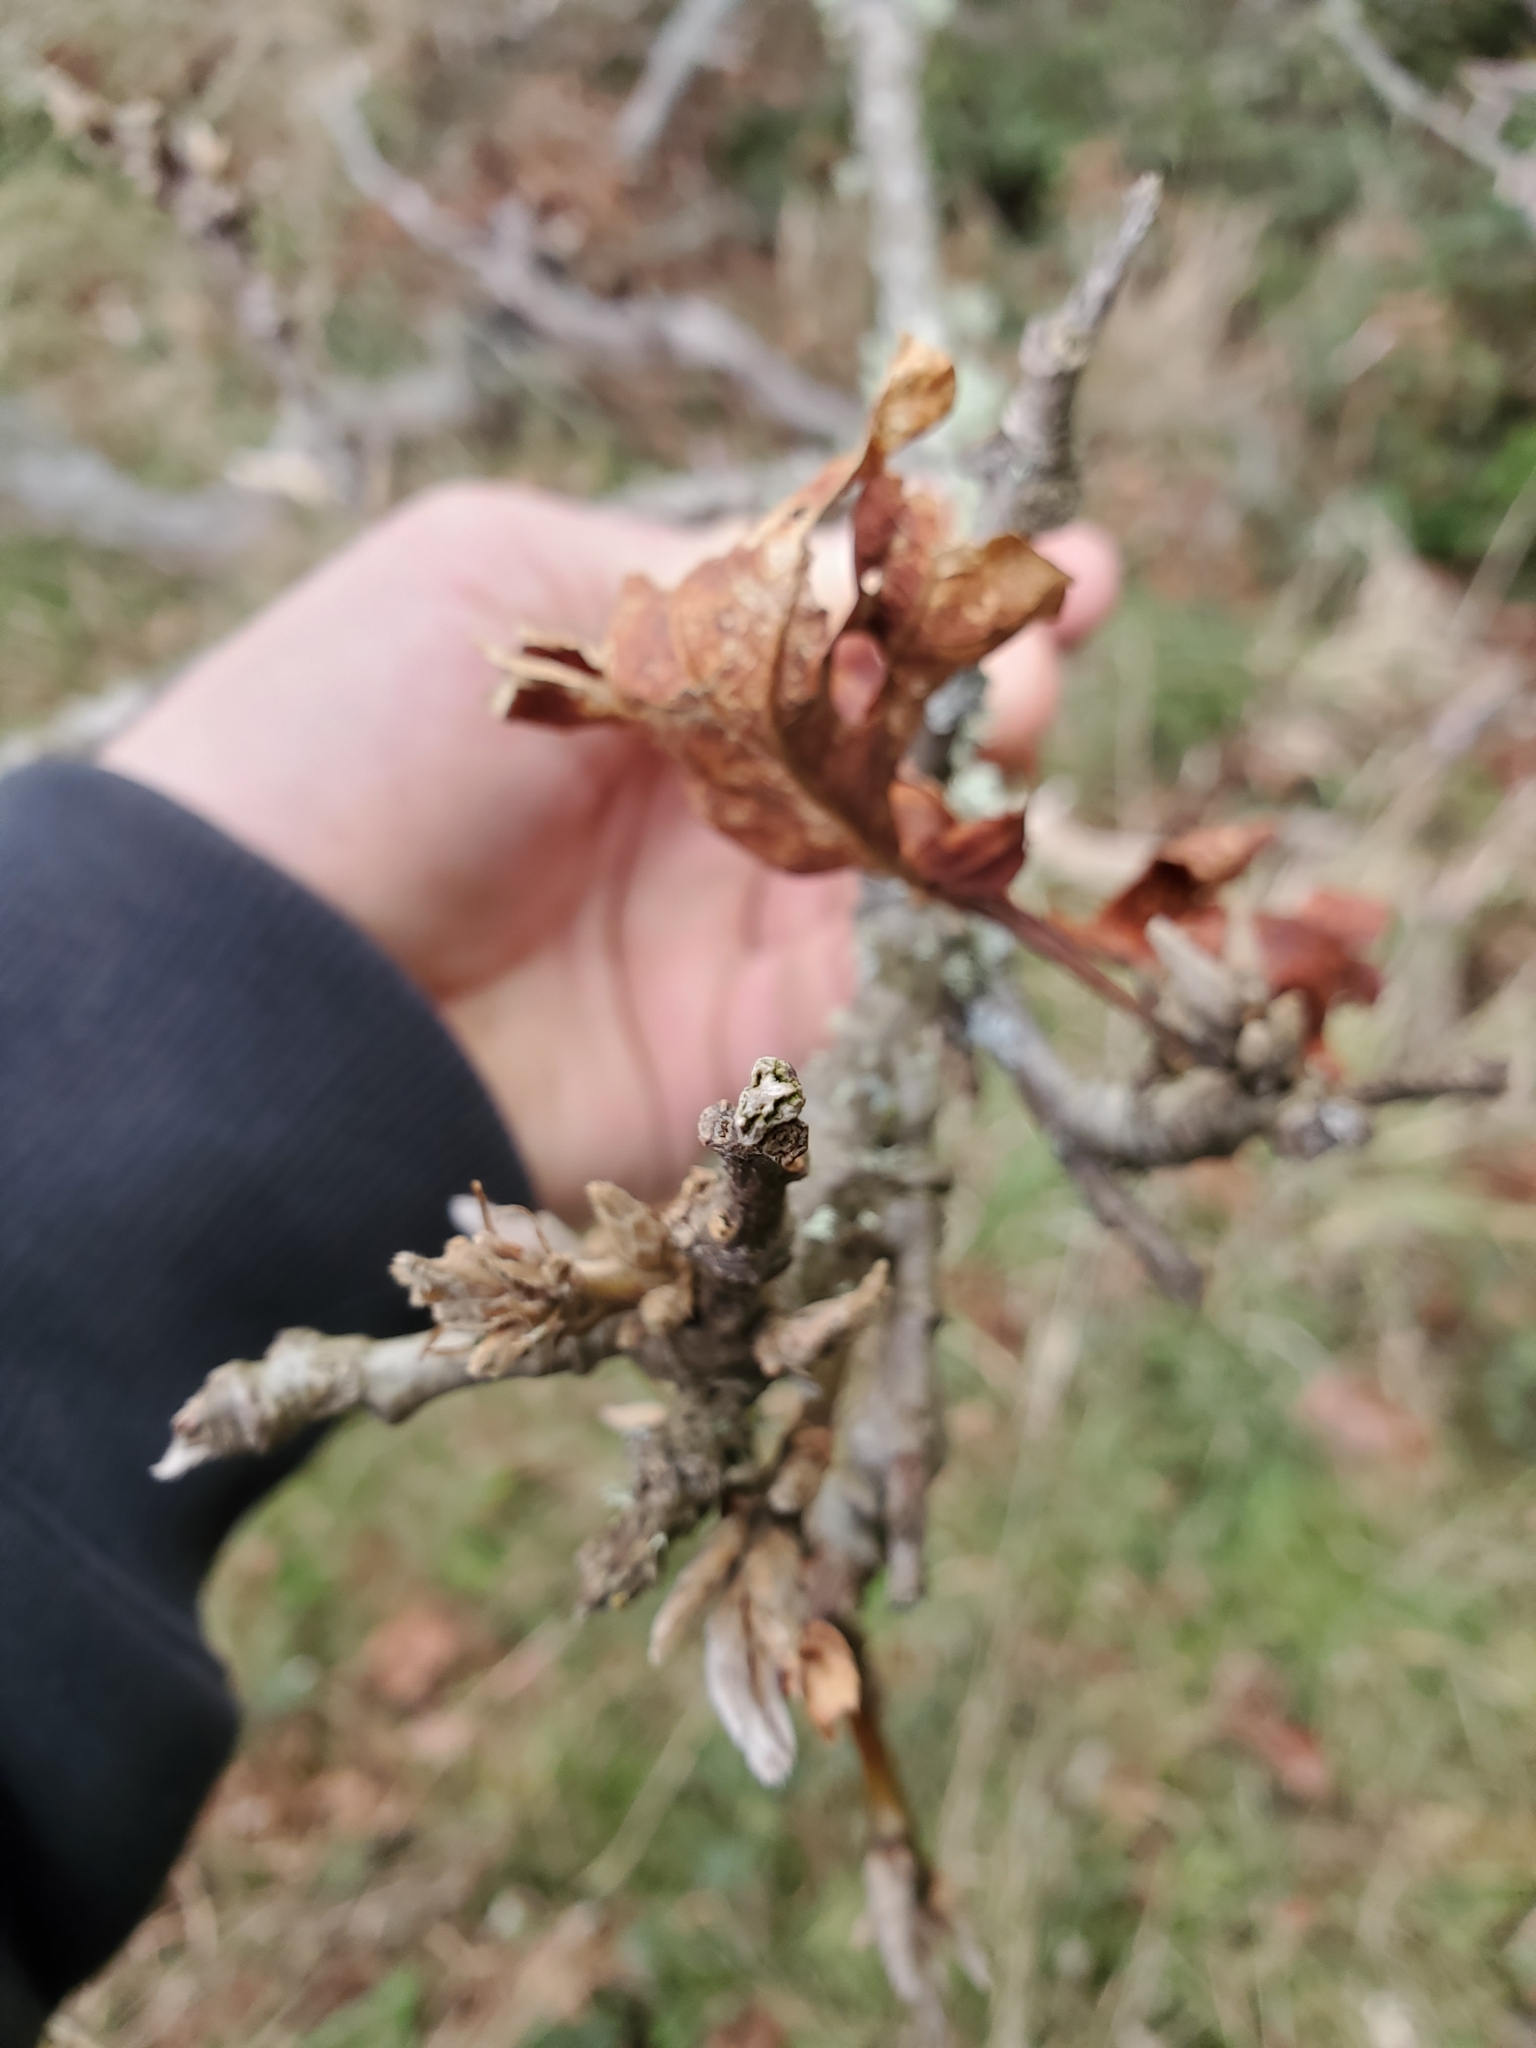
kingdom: Plantae
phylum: Tracheophyta
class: Magnoliopsida
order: Fagales
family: Fagaceae
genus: Quercus
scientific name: Quercus garryana
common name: Garry oak
